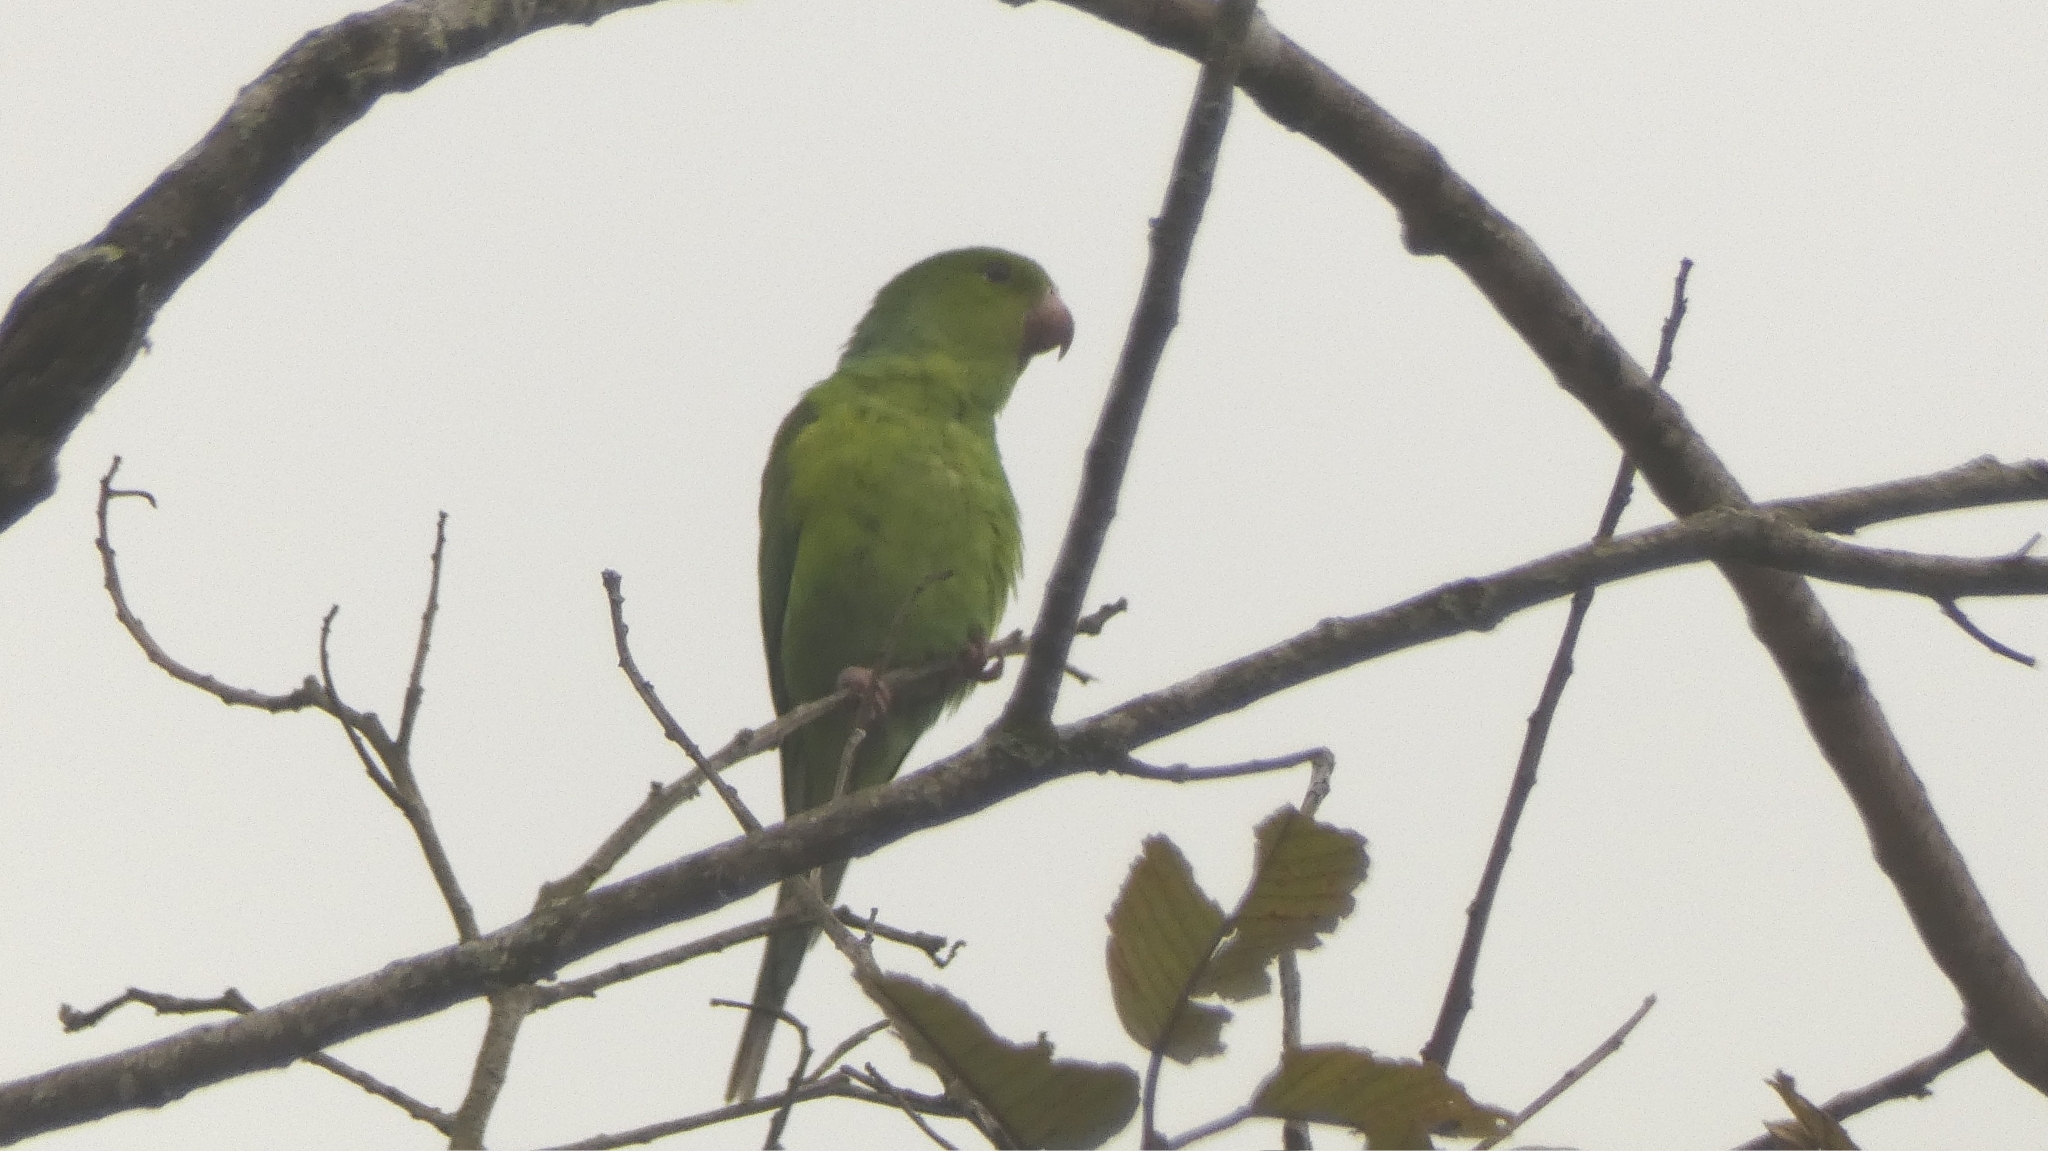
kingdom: Animalia
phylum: Chordata
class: Aves
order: Psittaciformes
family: Psittacidae
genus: Brotogeris
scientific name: Brotogeris tirica
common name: Plain parakeet
